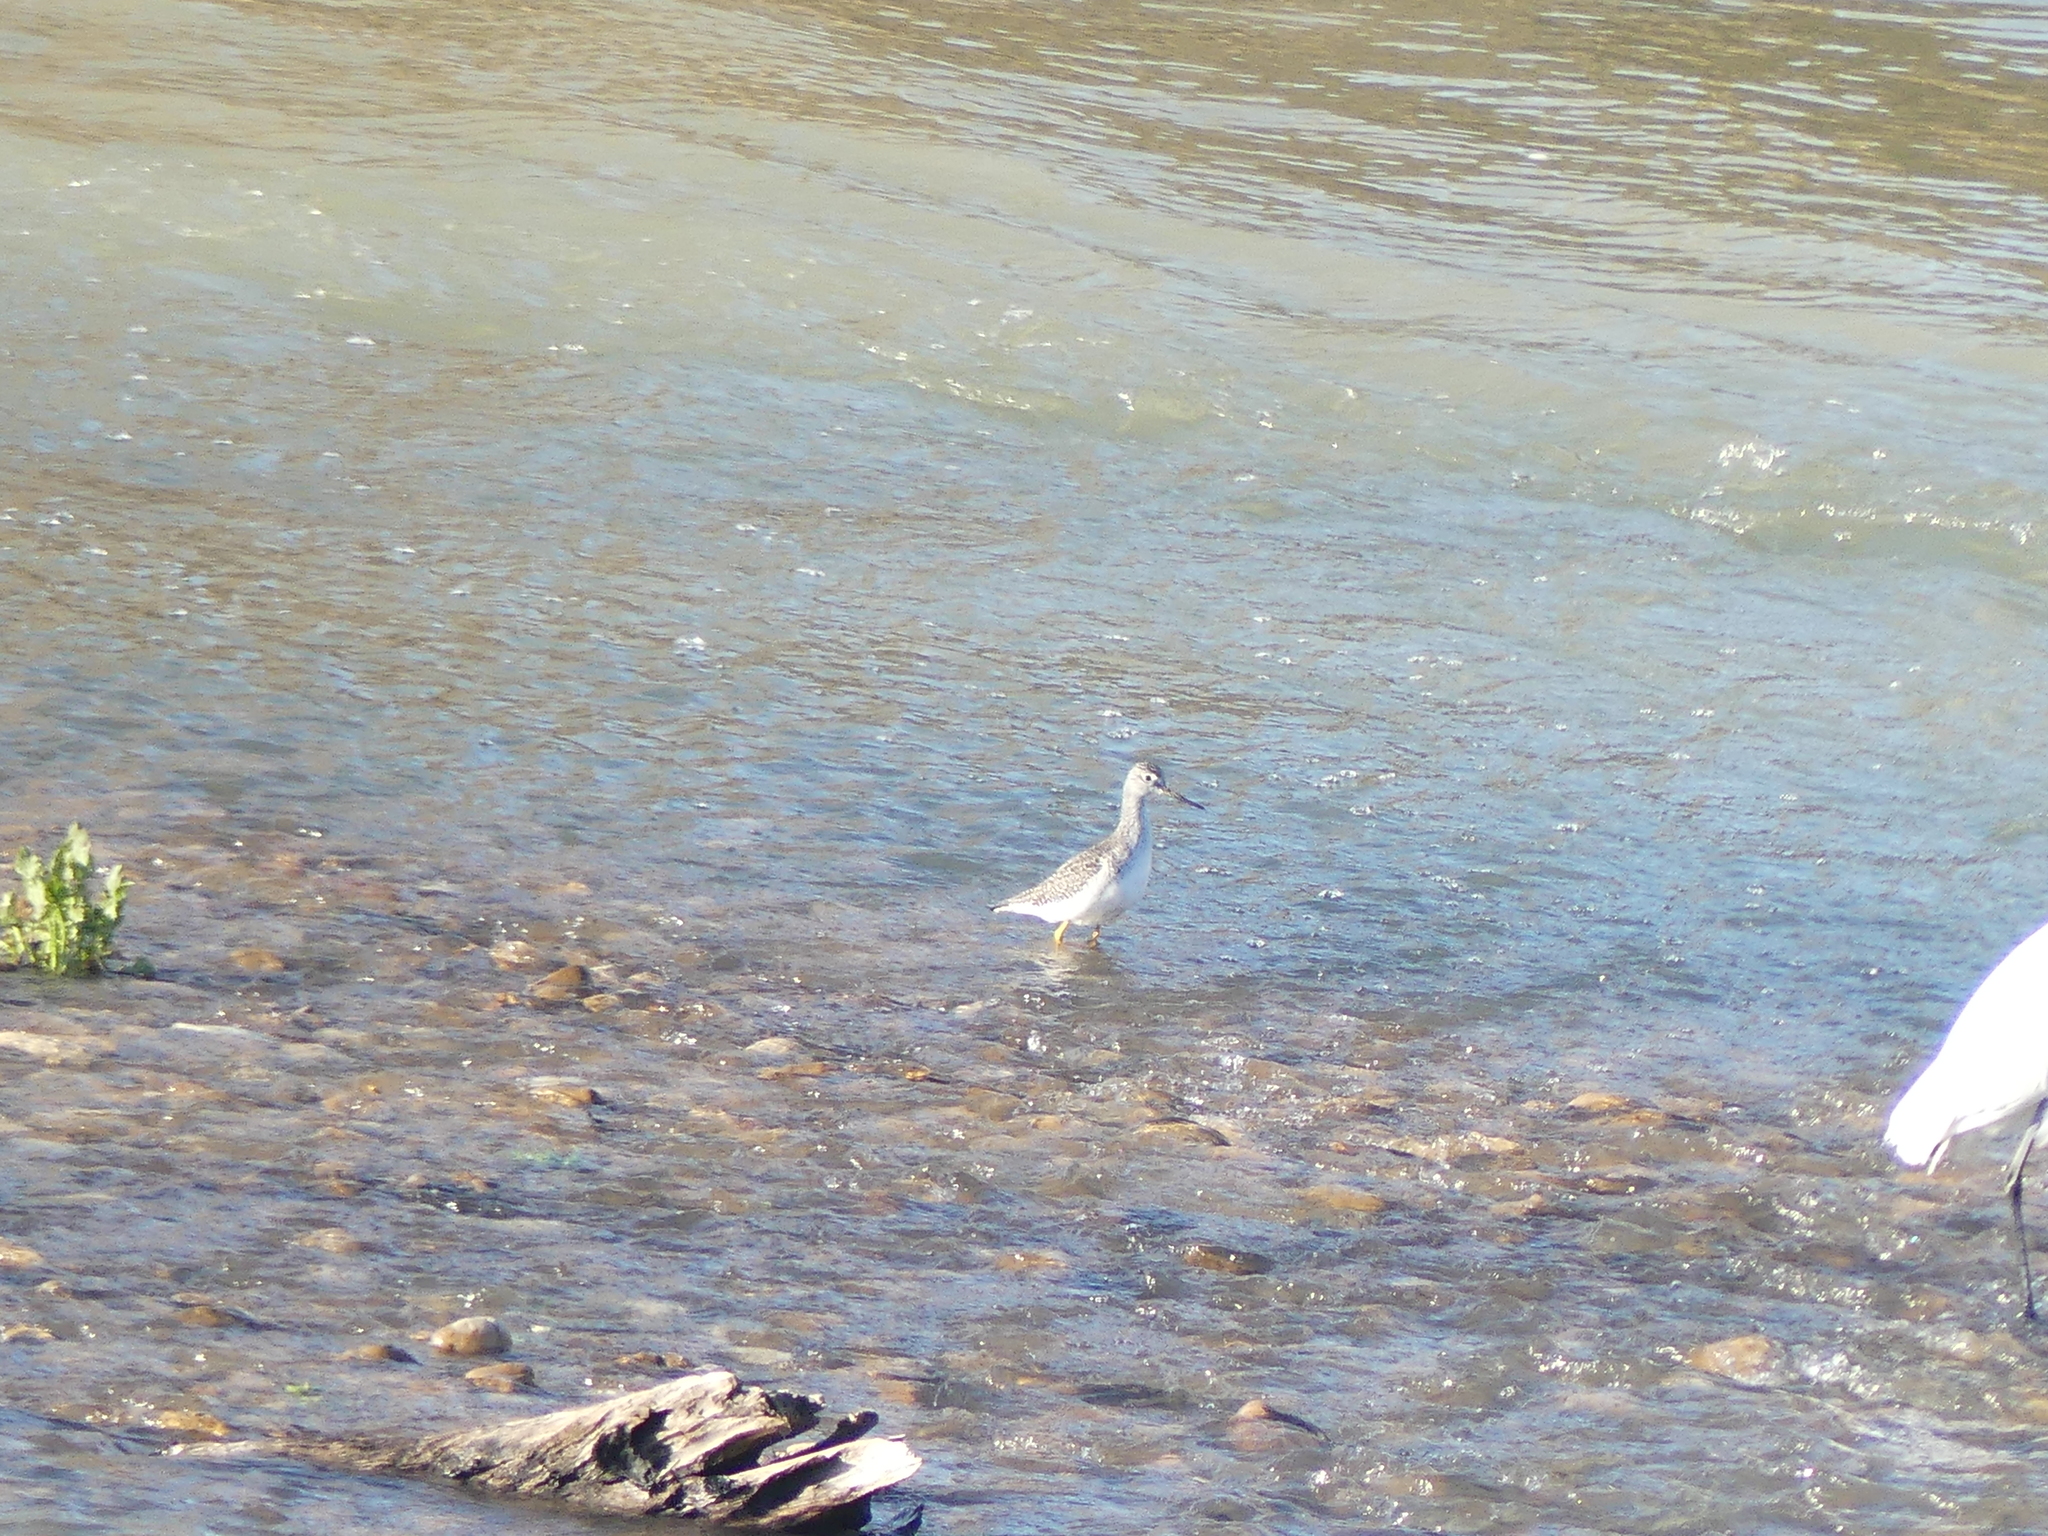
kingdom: Animalia
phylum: Chordata
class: Aves
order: Charadriiformes
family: Scolopacidae
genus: Tringa
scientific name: Tringa melanoleuca
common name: Greater yellowlegs
